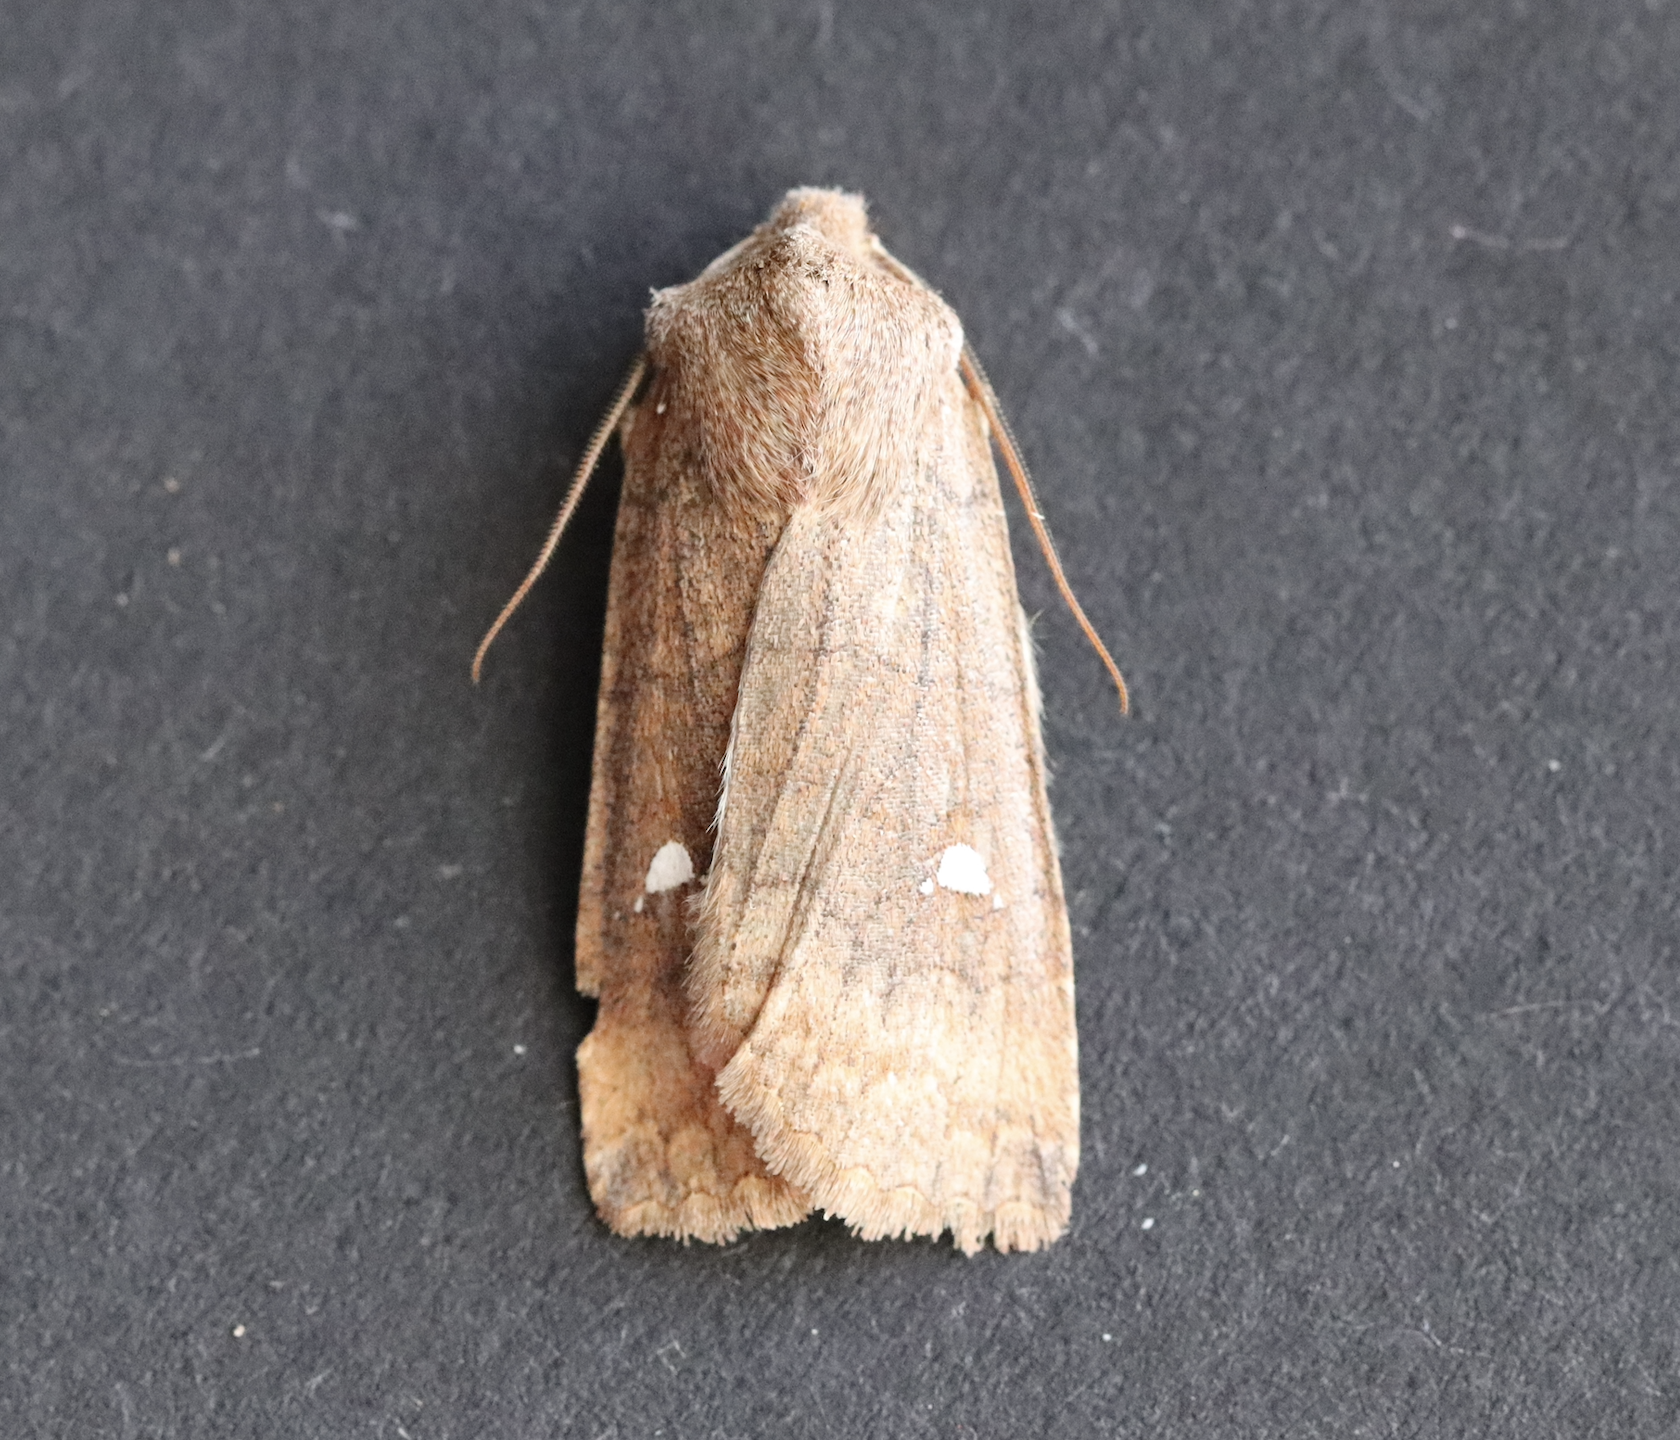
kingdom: Animalia
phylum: Arthropoda
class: Insecta
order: Lepidoptera
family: Noctuidae
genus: Eupsilia
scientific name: Eupsilia transversa
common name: Satellite
